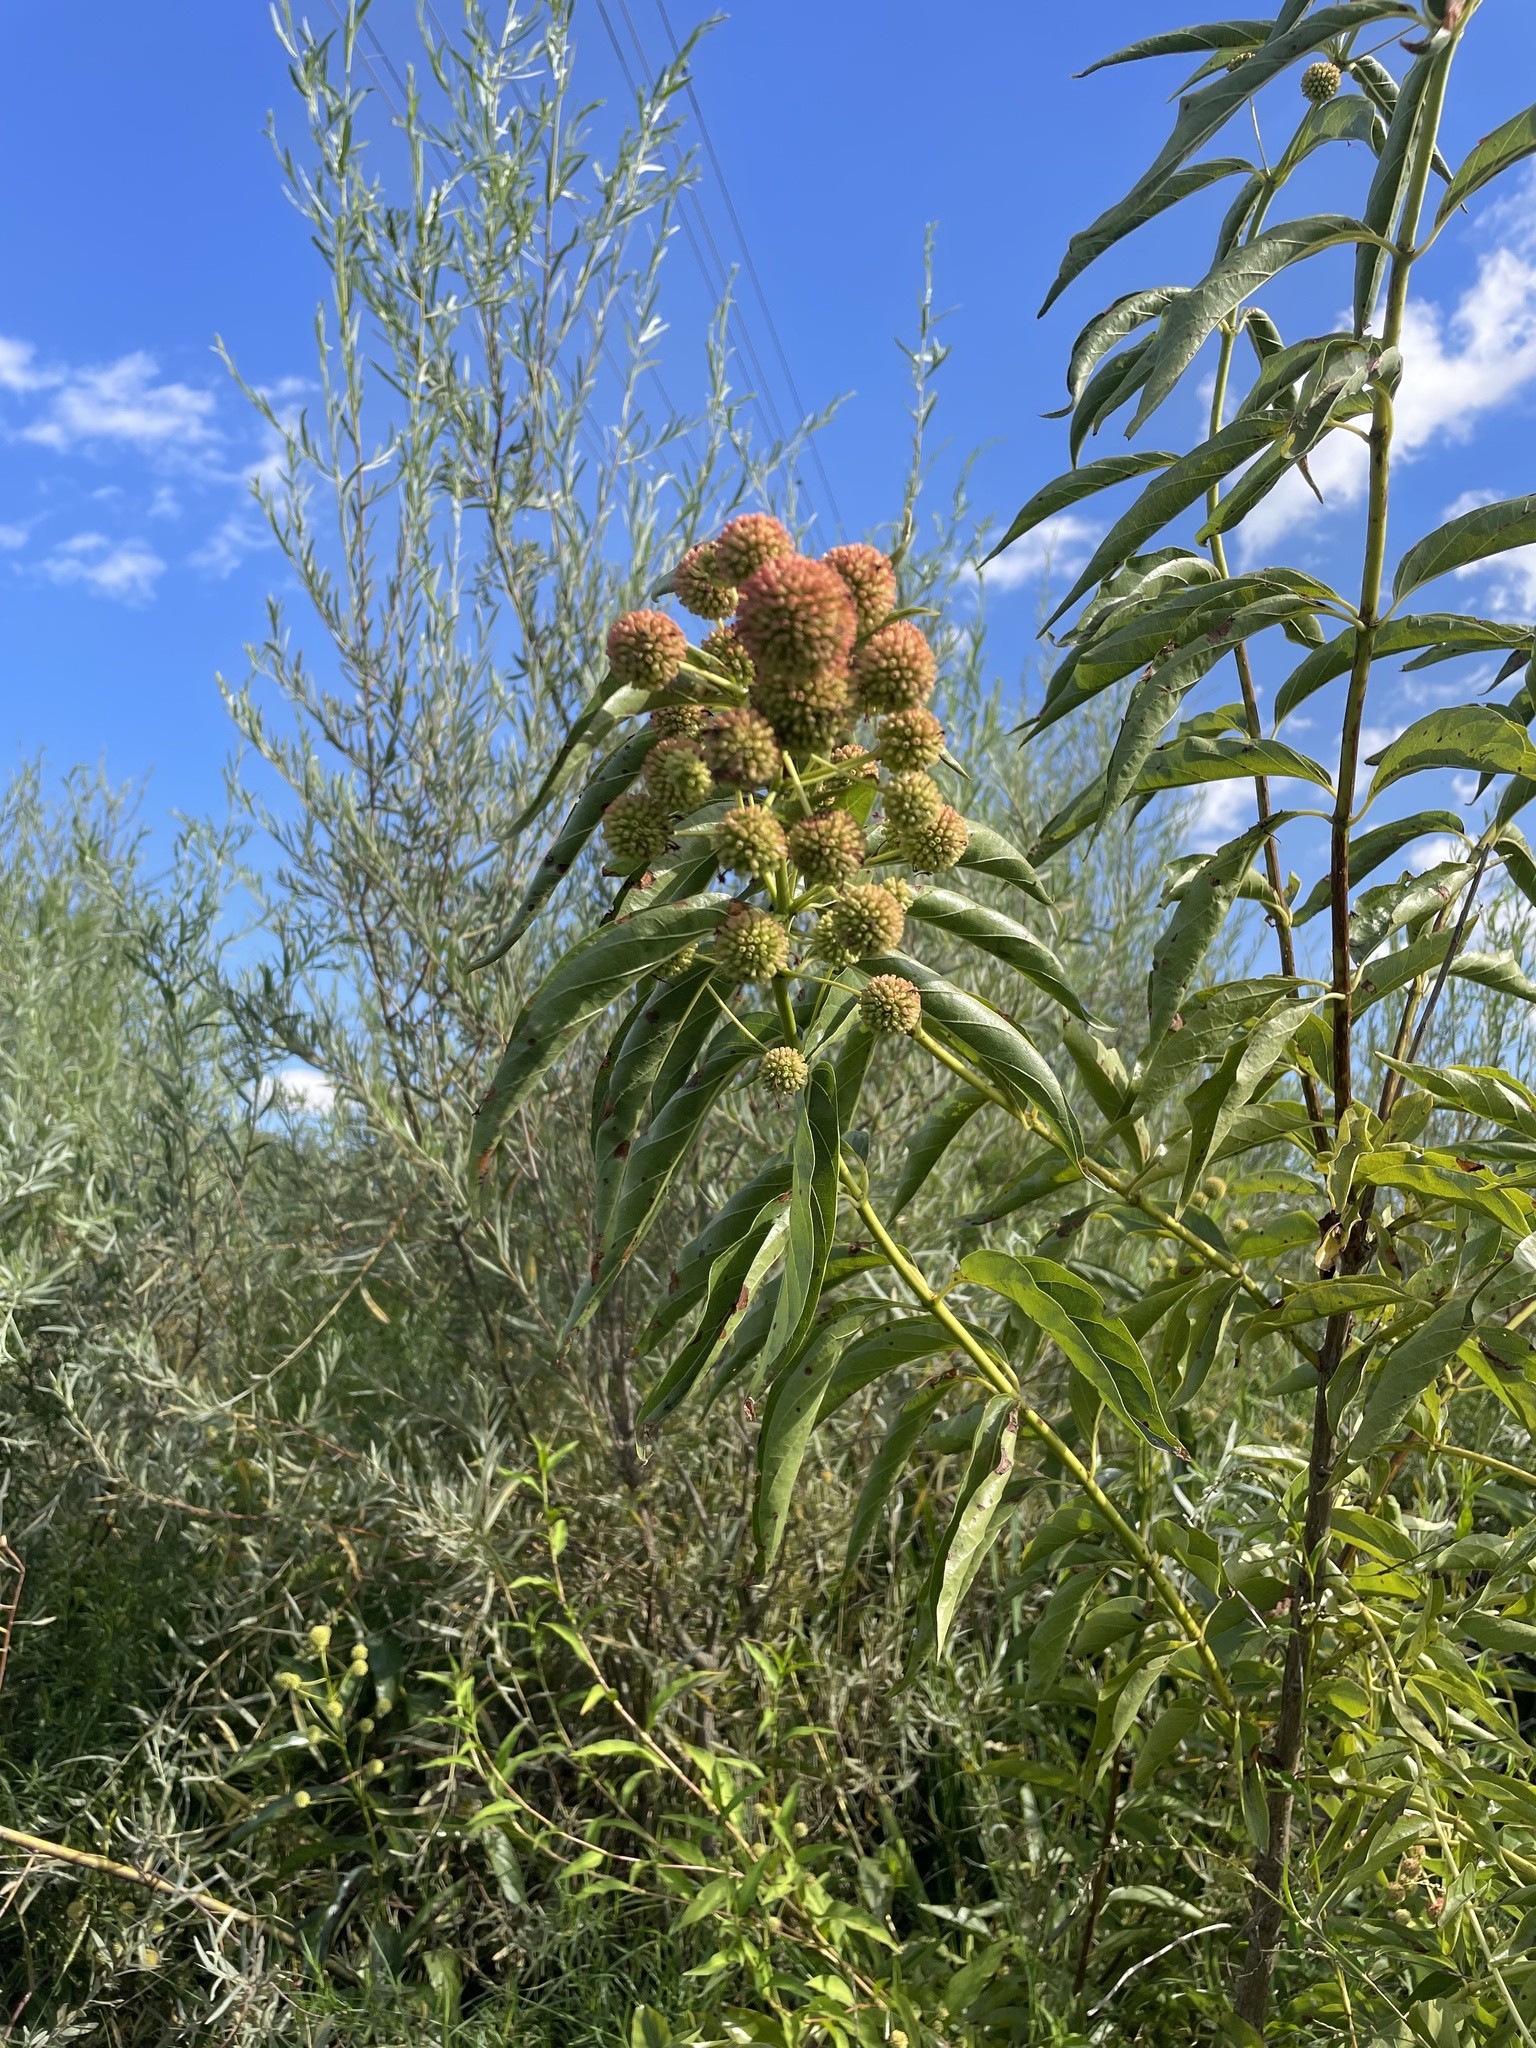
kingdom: Plantae
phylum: Tracheophyta
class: Magnoliopsida
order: Gentianales
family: Rubiaceae
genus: Cephalanthus
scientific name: Cephalanthus occidentalis
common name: Button-willow
